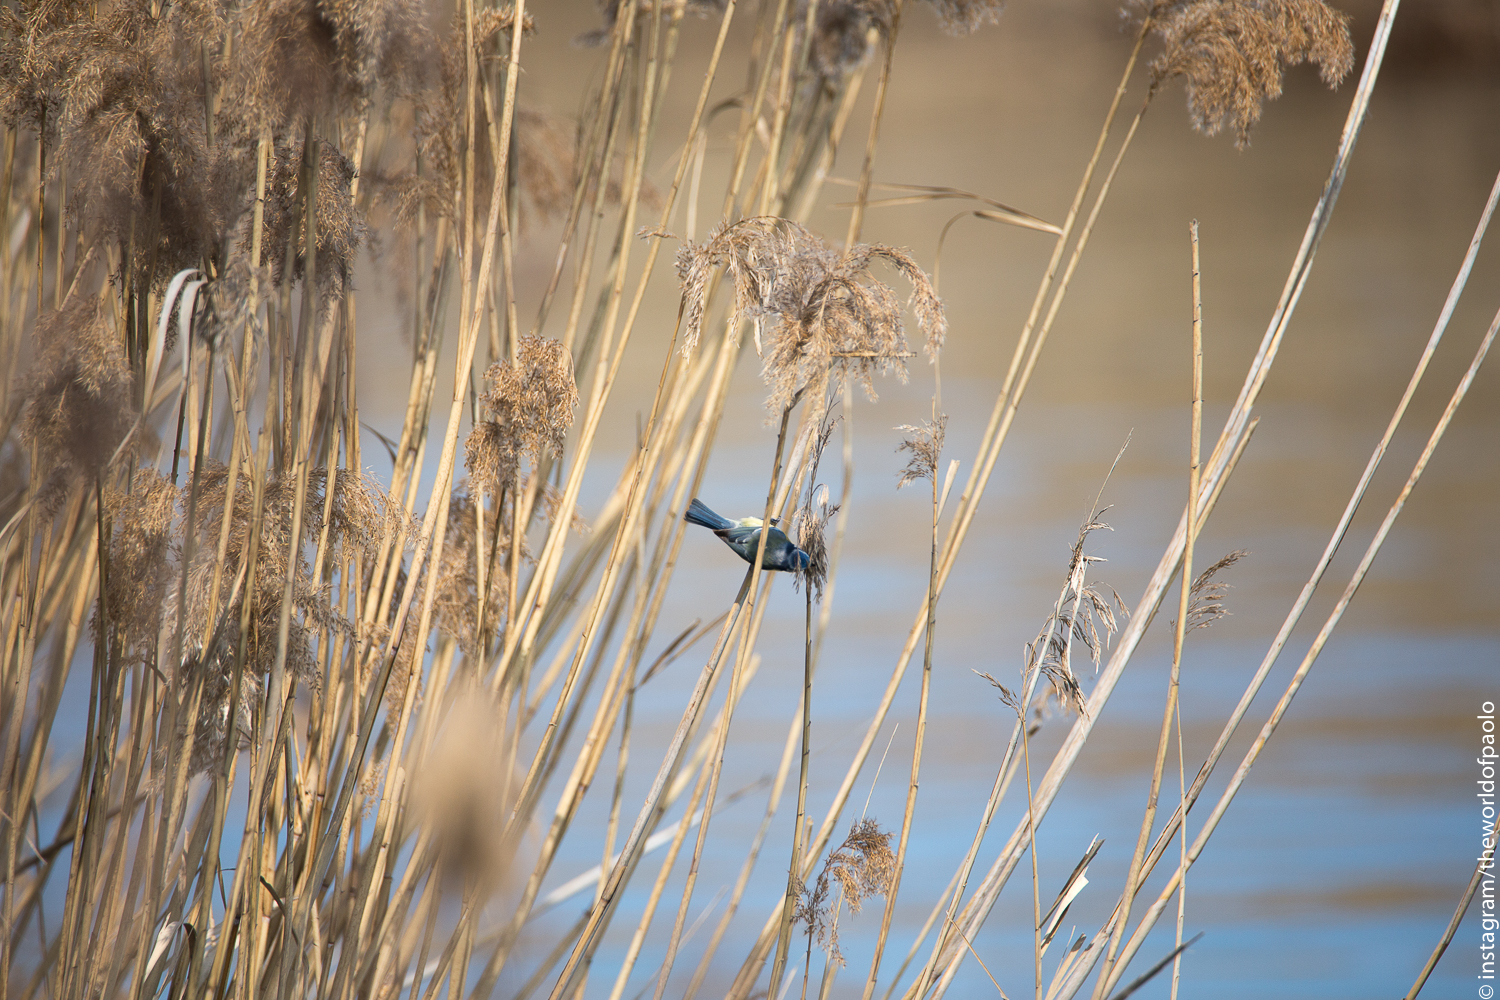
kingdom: Animalia
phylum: Chordata
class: Aves
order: Passeriformes
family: Paridae
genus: Cyanistes
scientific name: Cyanistes caeruleus
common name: Eurasian blue tit
